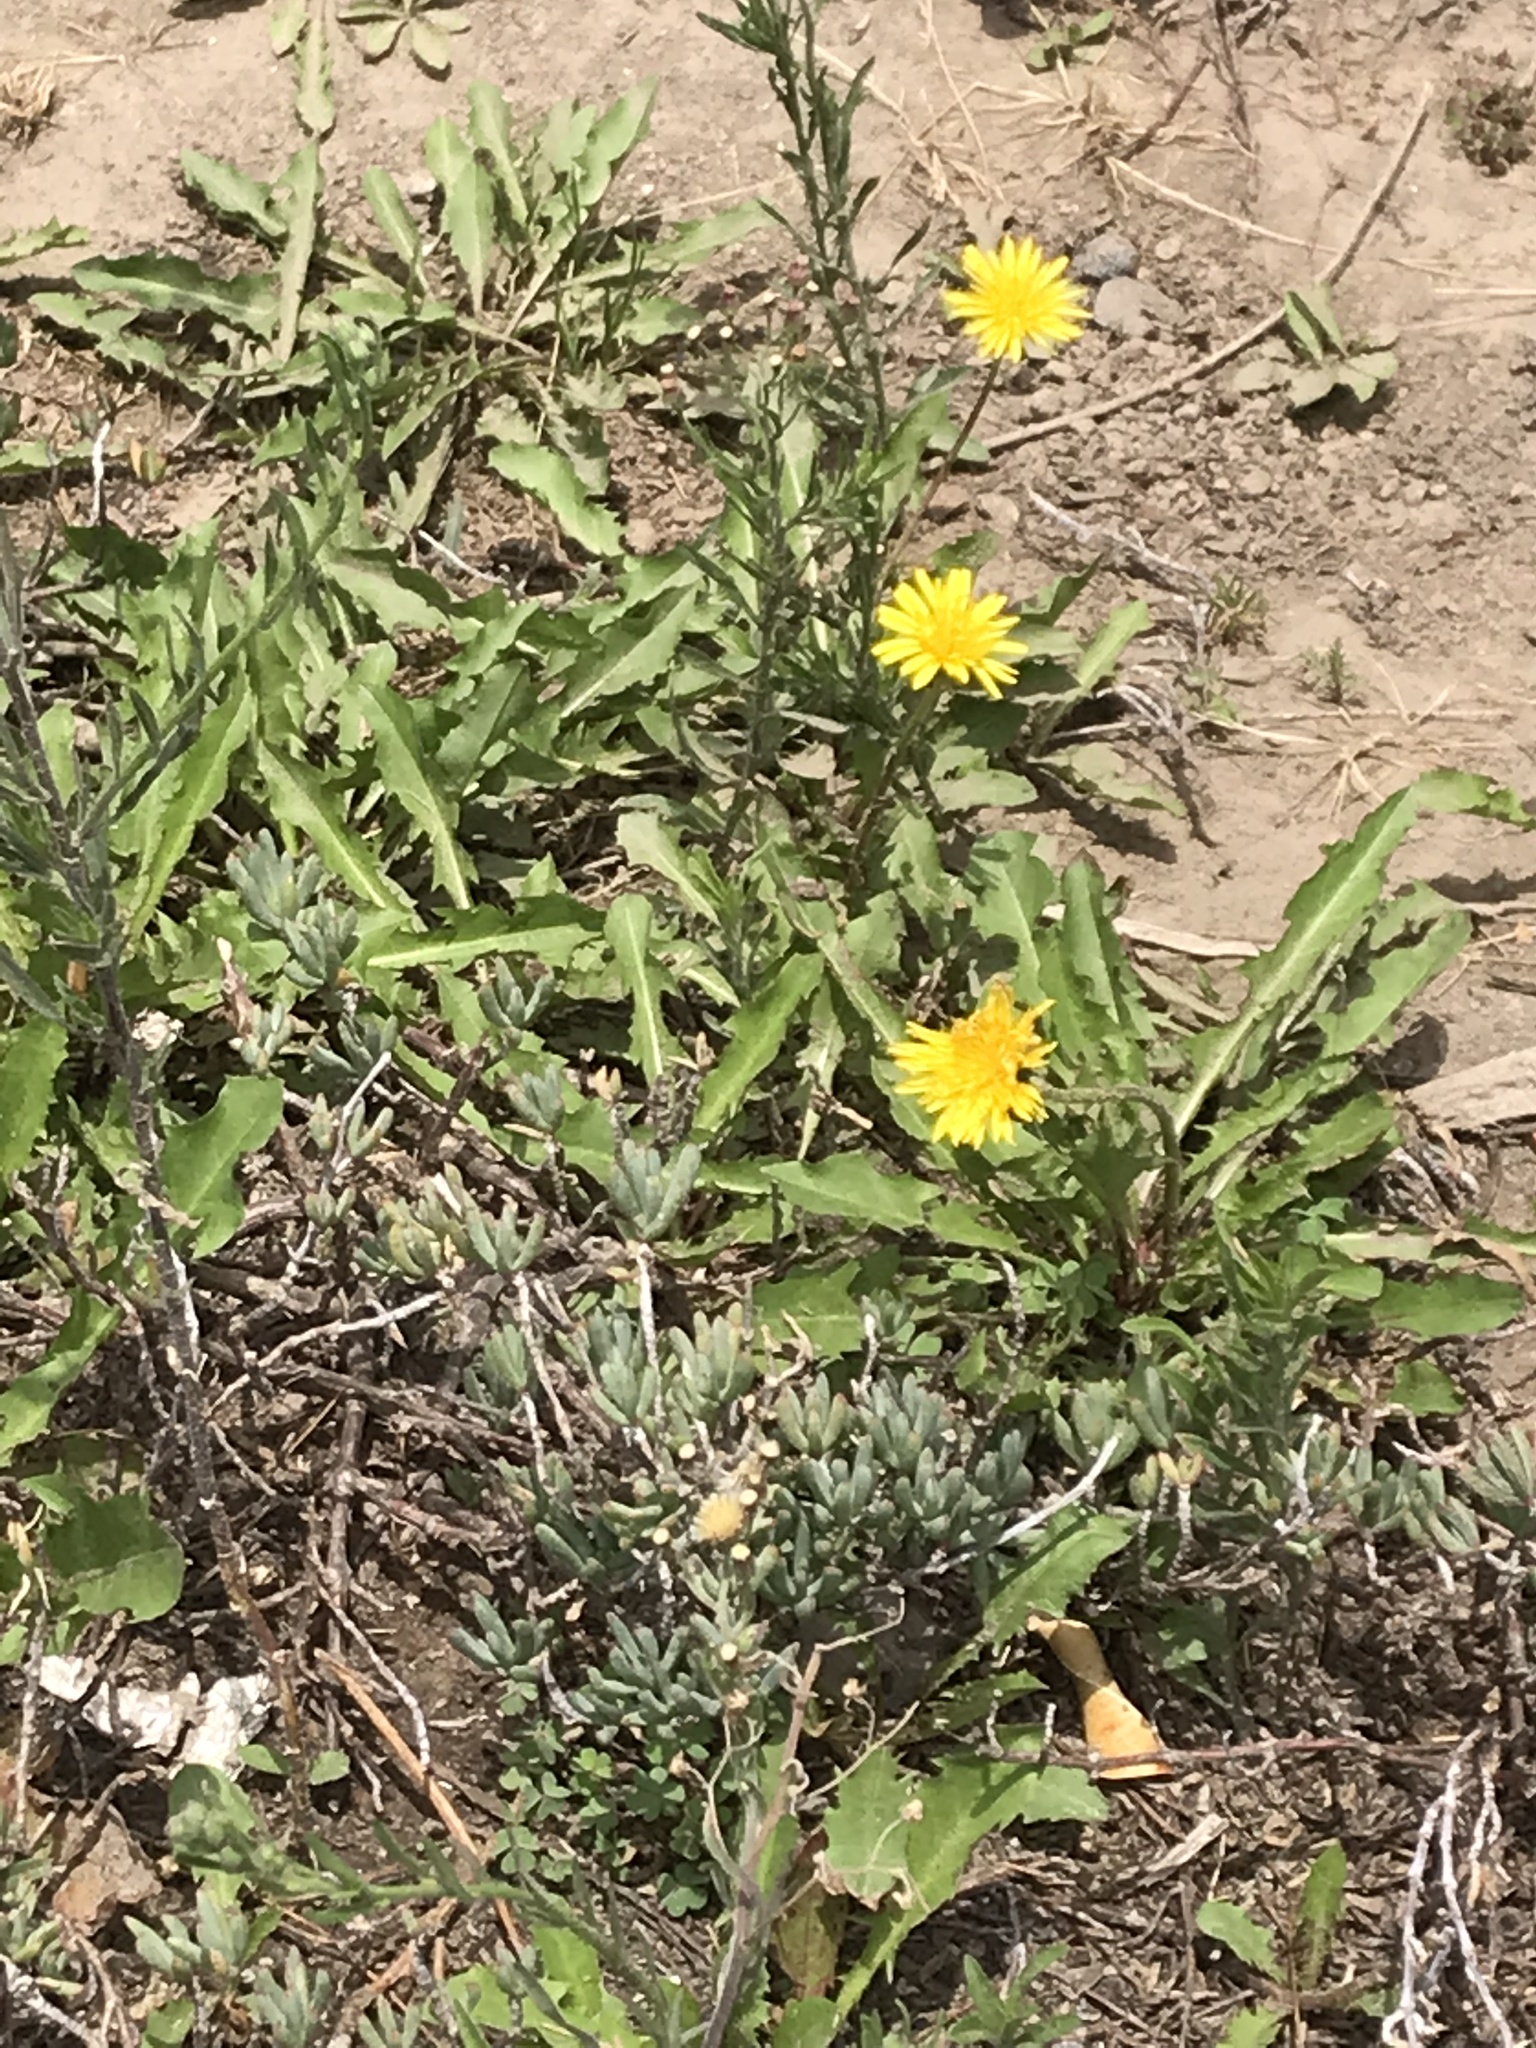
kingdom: Plantae
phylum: Tracheophyta
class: Magnoliopsida
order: Asterales
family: Asteraceae
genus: Taraxacum
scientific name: Taraxacum officinale
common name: Common dandelion
